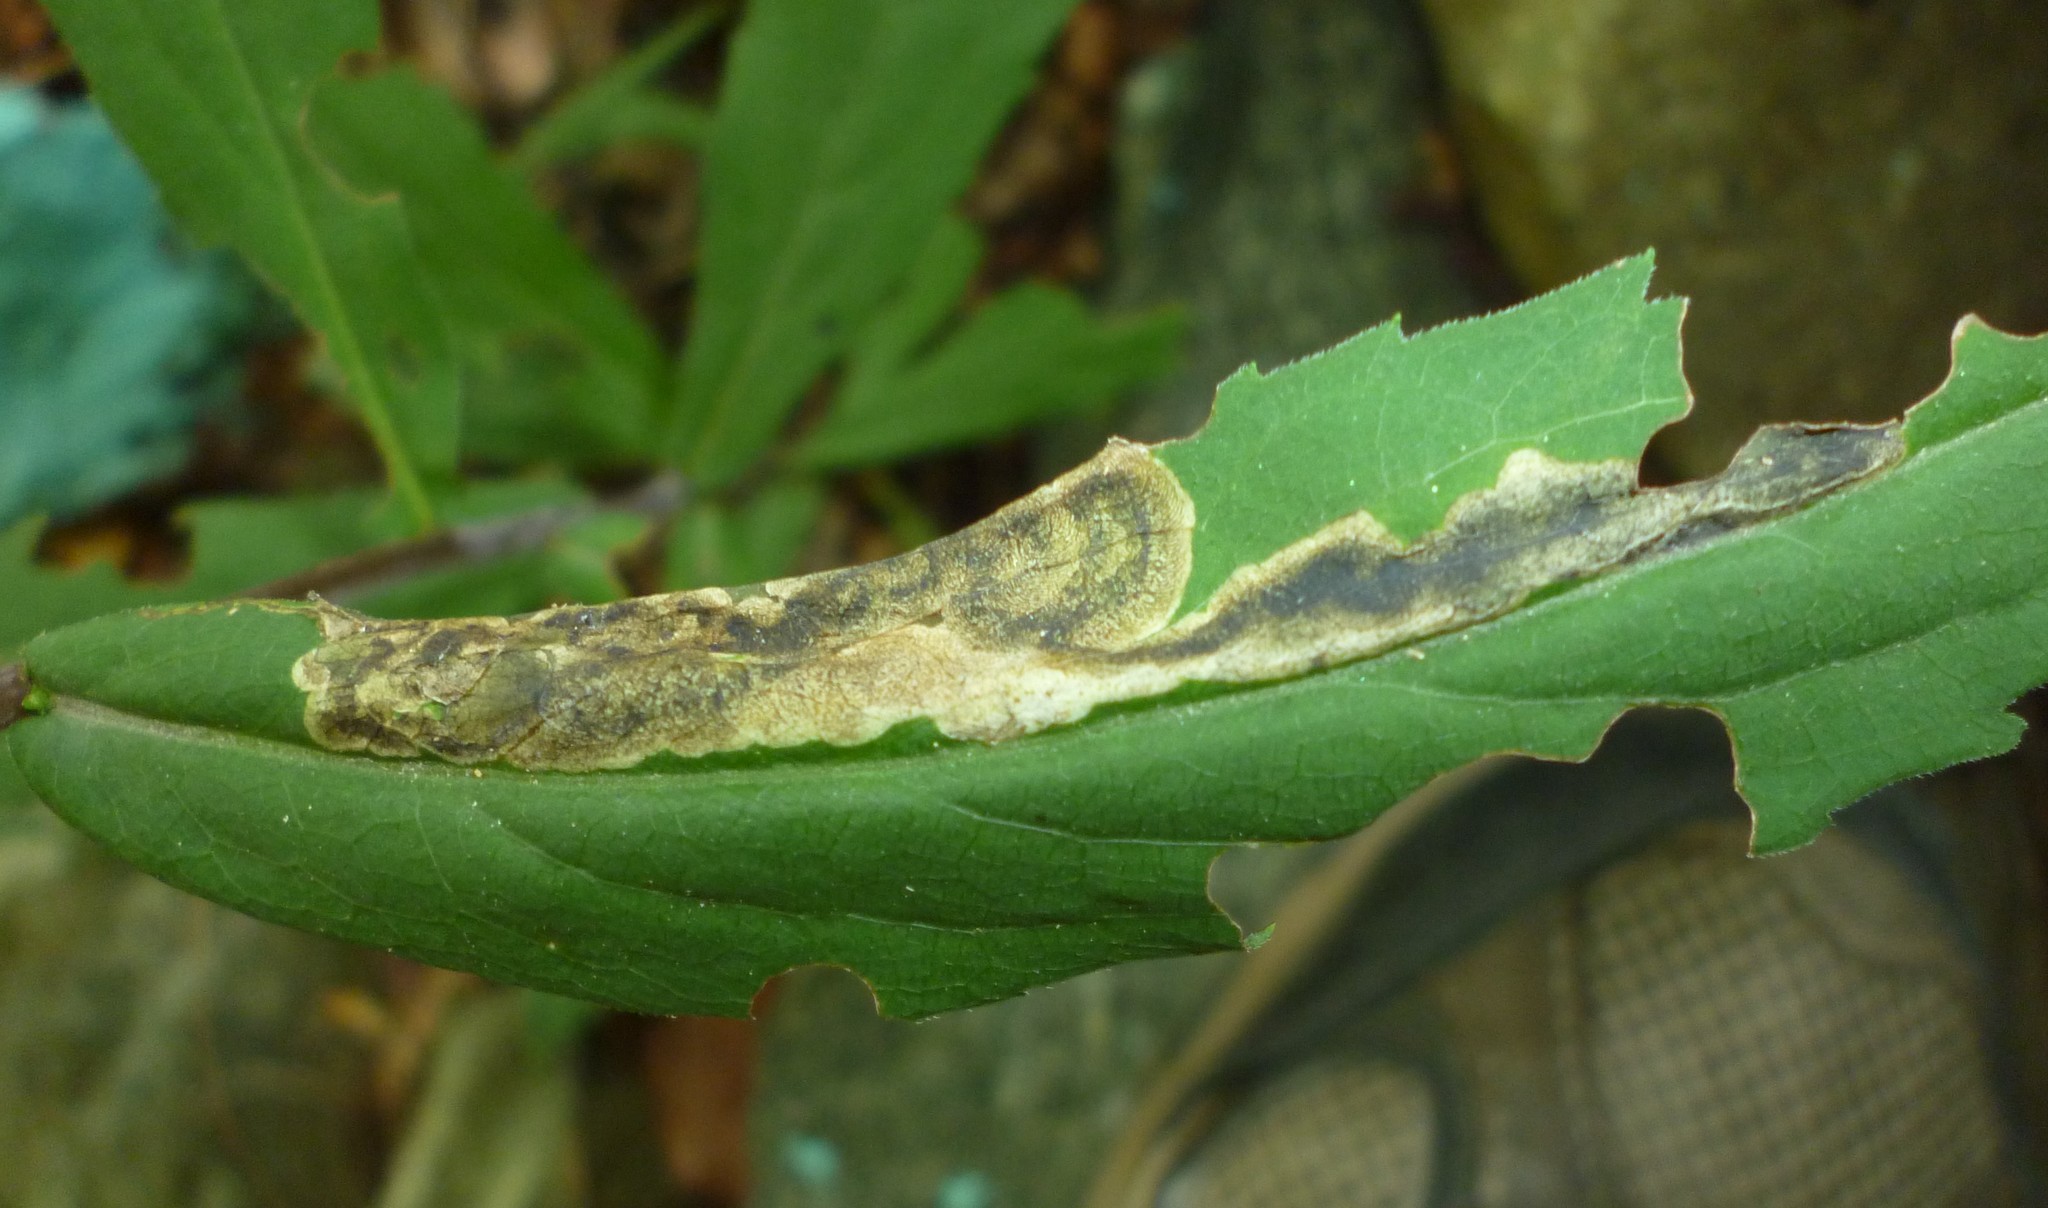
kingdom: Animalia
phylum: Arthropoda
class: Insecta
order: Diptera
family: Agromyzidae
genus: Nemorimyza
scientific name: Nemorimyza posticata
